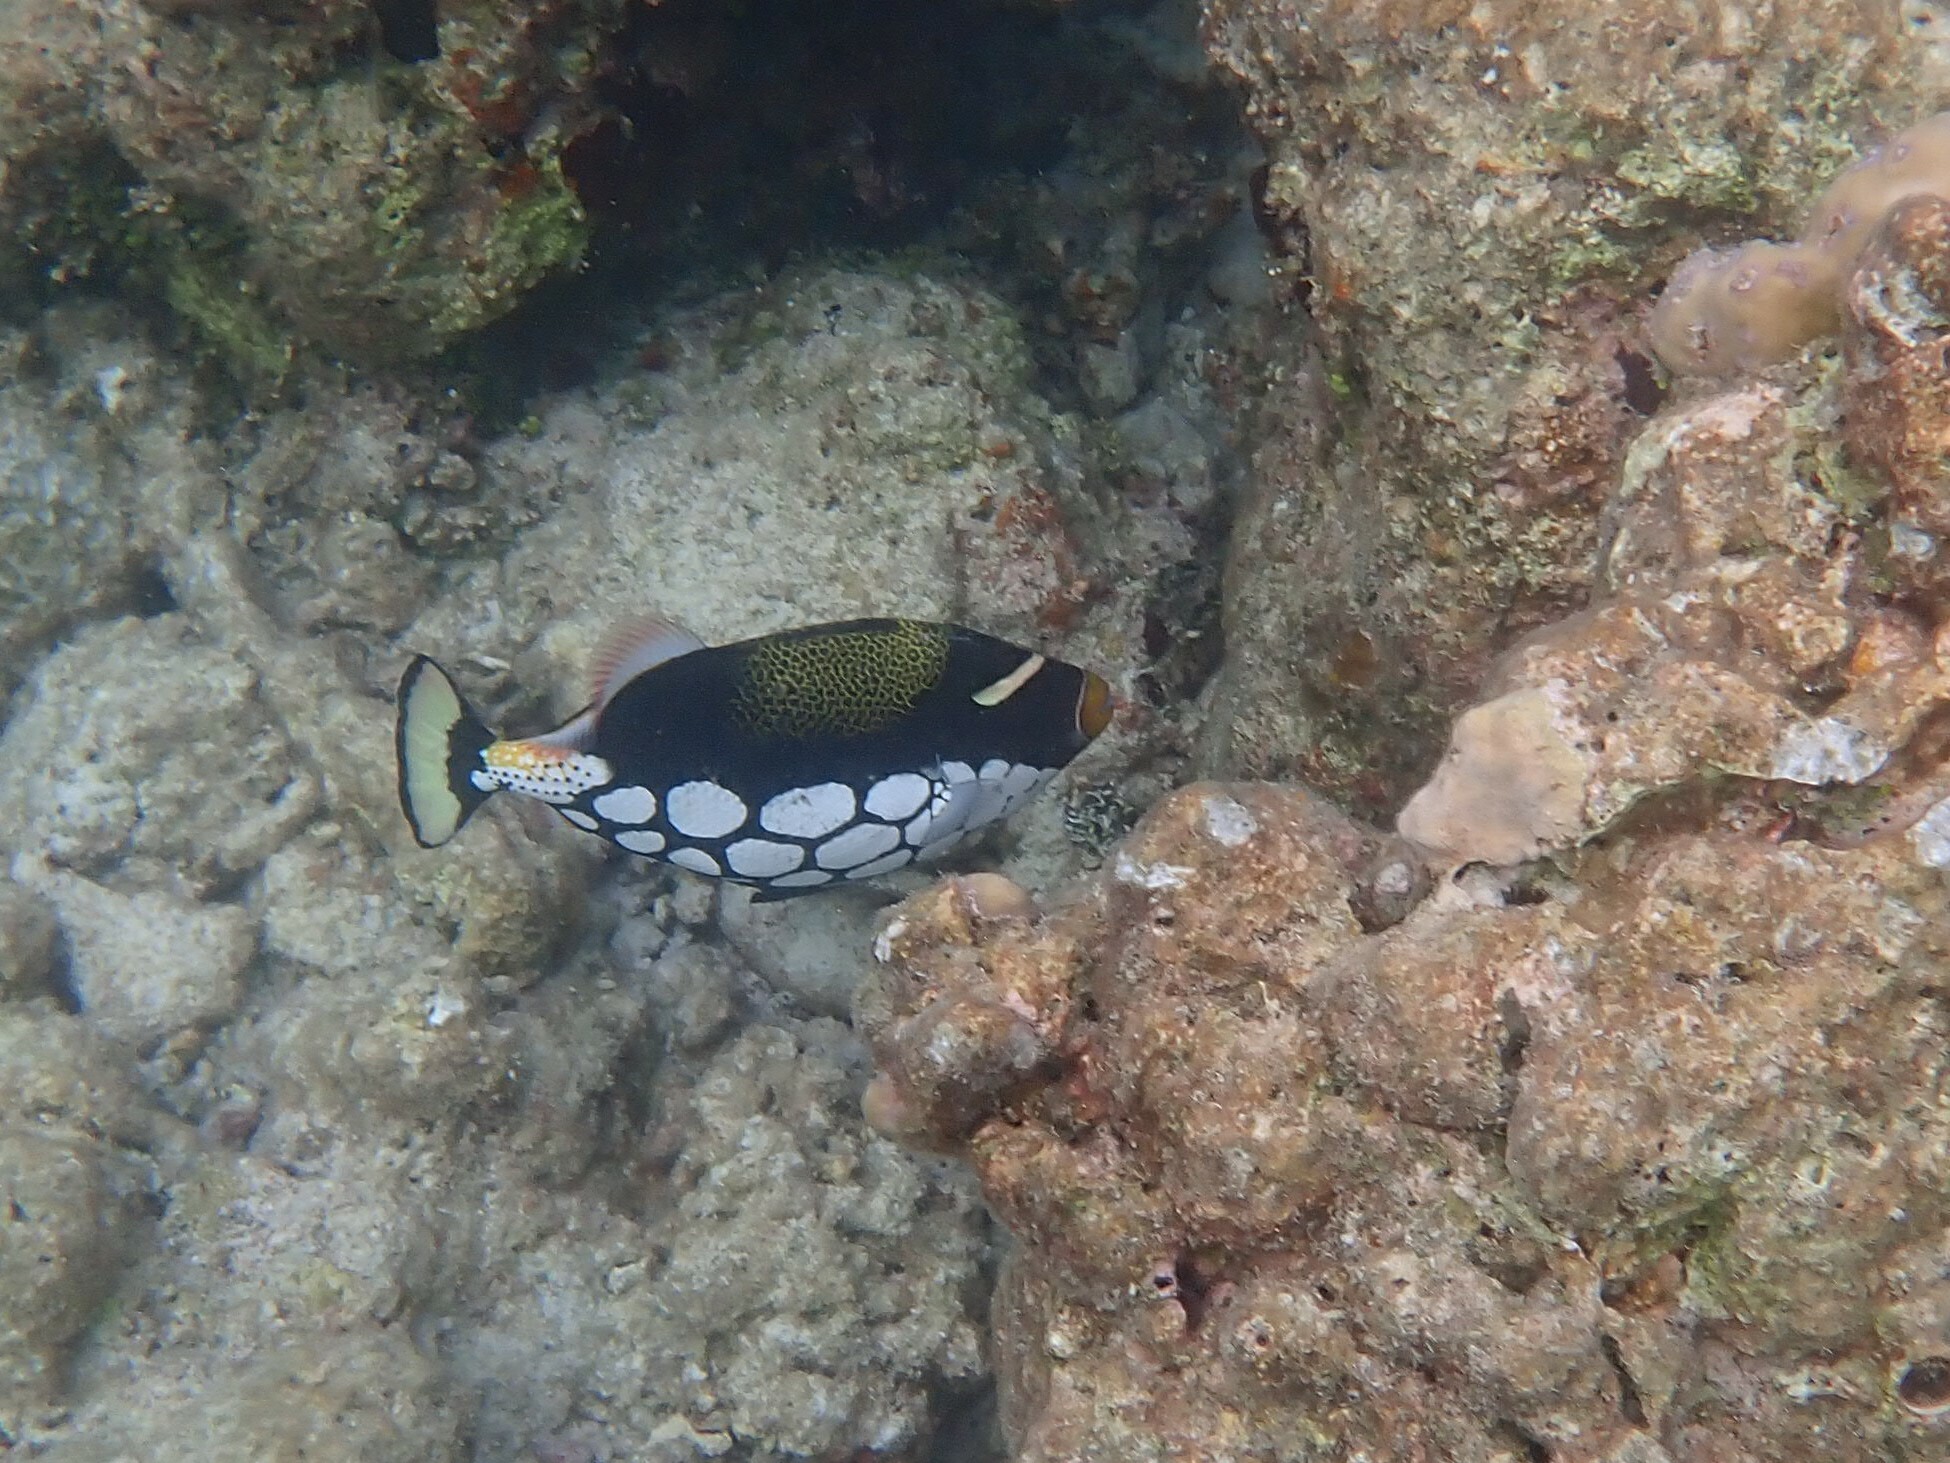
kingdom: Animalia
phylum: Chordata
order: Tetraodontiformes
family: Balistidae
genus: Balistoides
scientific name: Balistoides conspicillum
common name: Clown triggerfish
